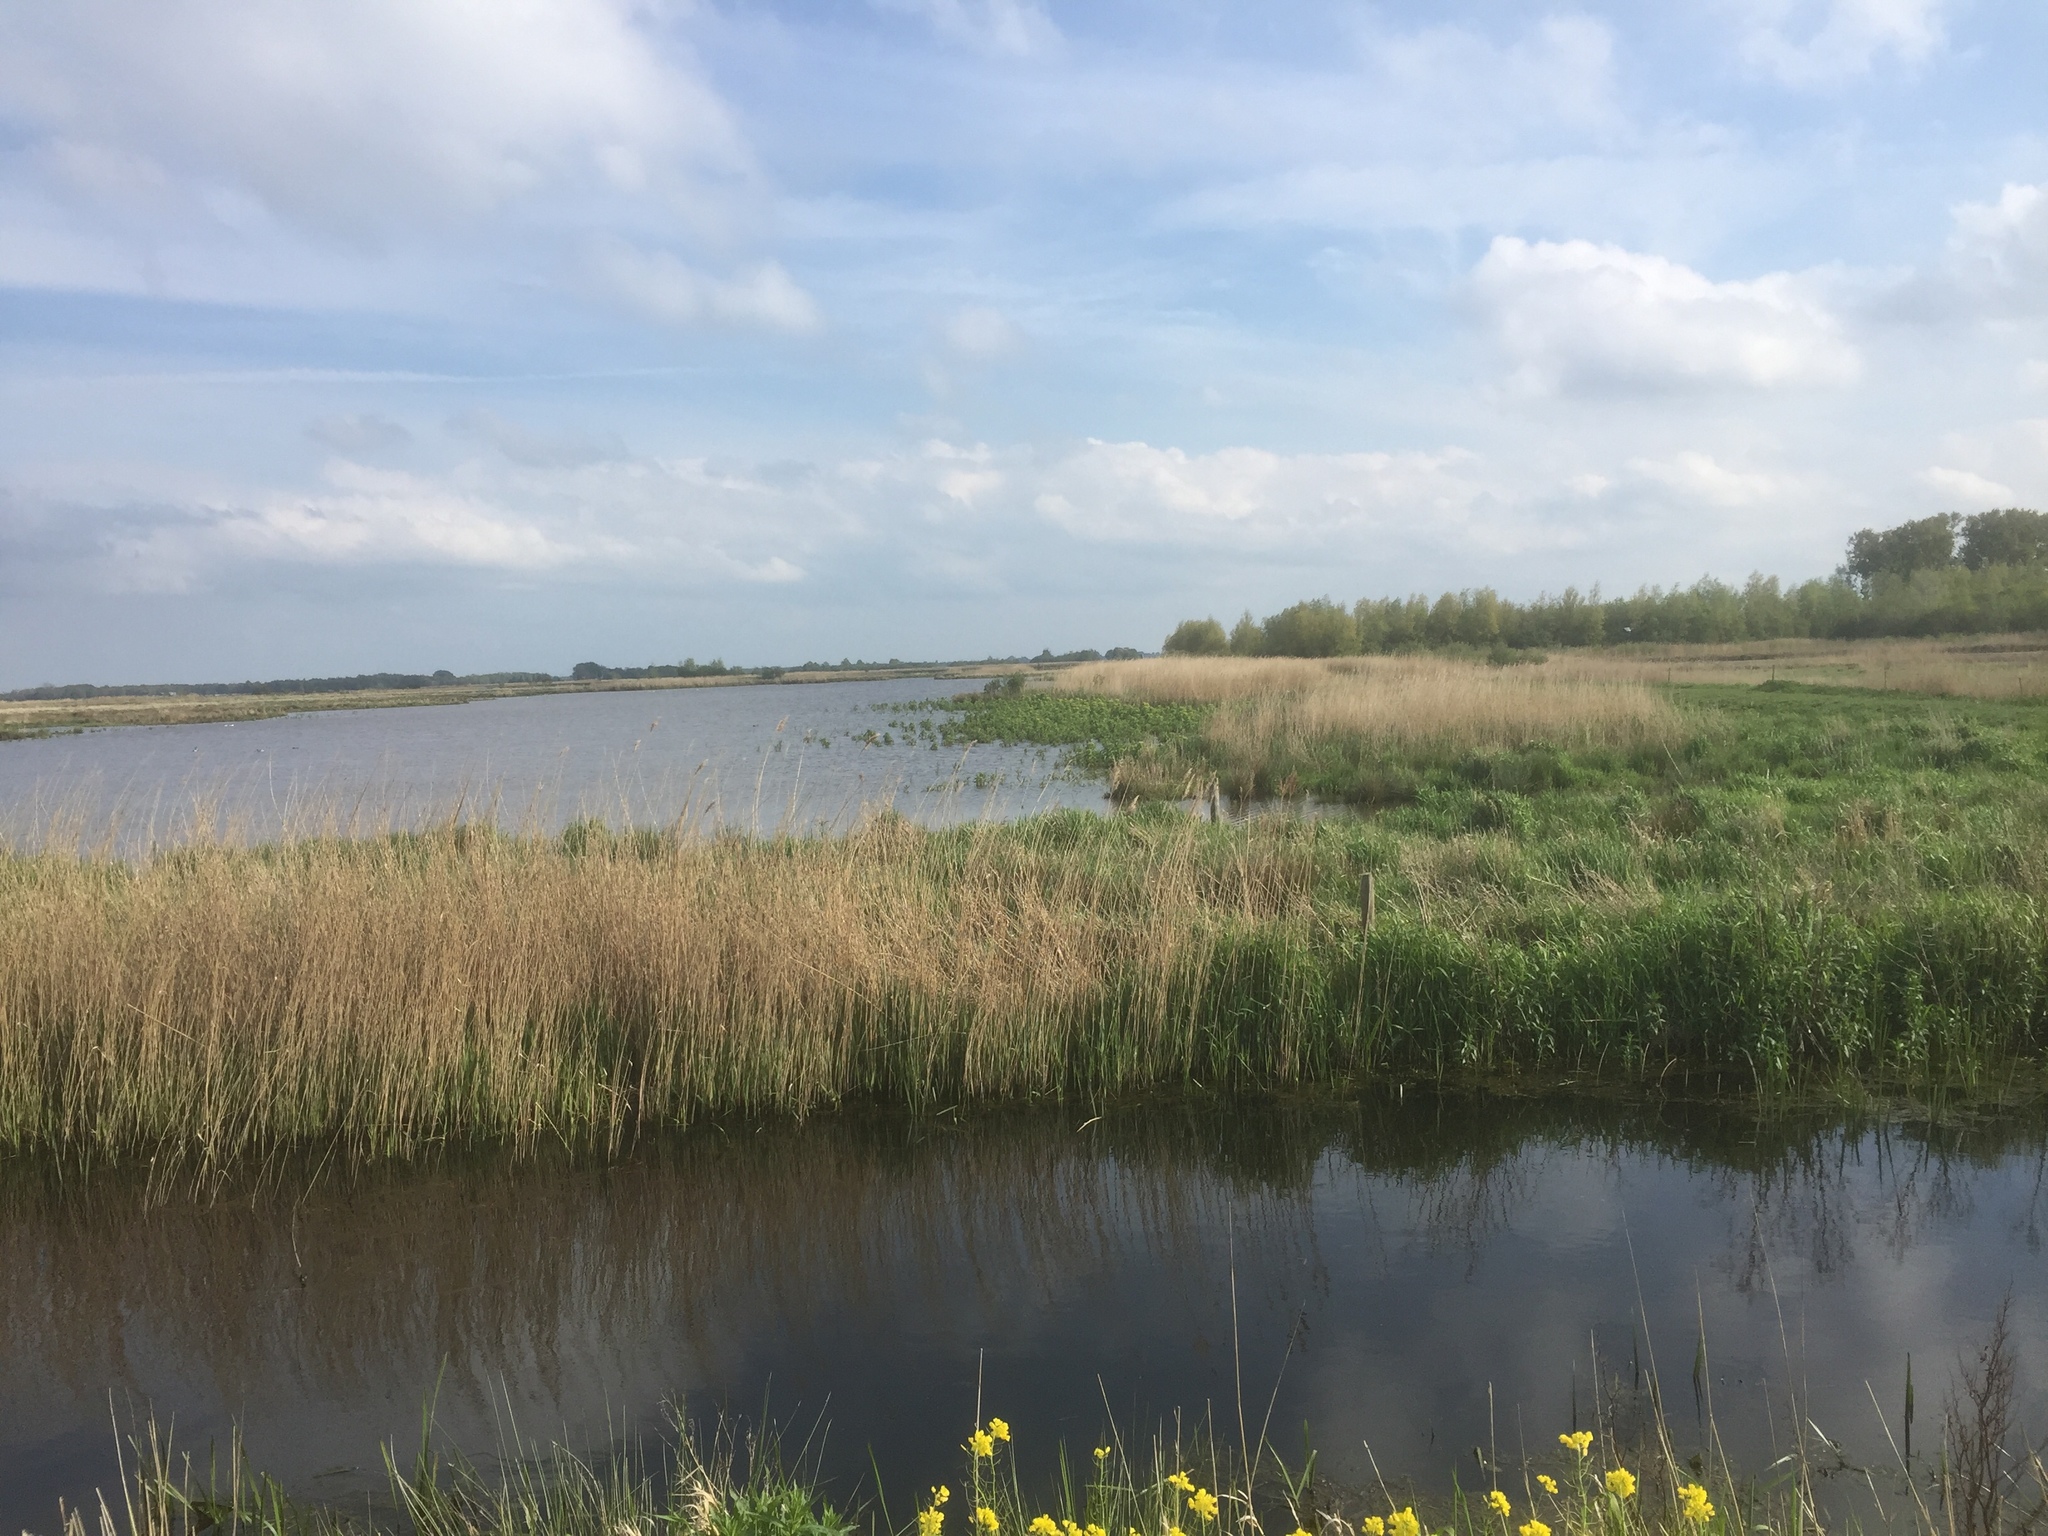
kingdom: Plantae
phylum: Tracheophyta
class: Liliopsida
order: Poales
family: Poaceae
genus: Phragmites
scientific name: Phragmites australis
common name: Common reed
